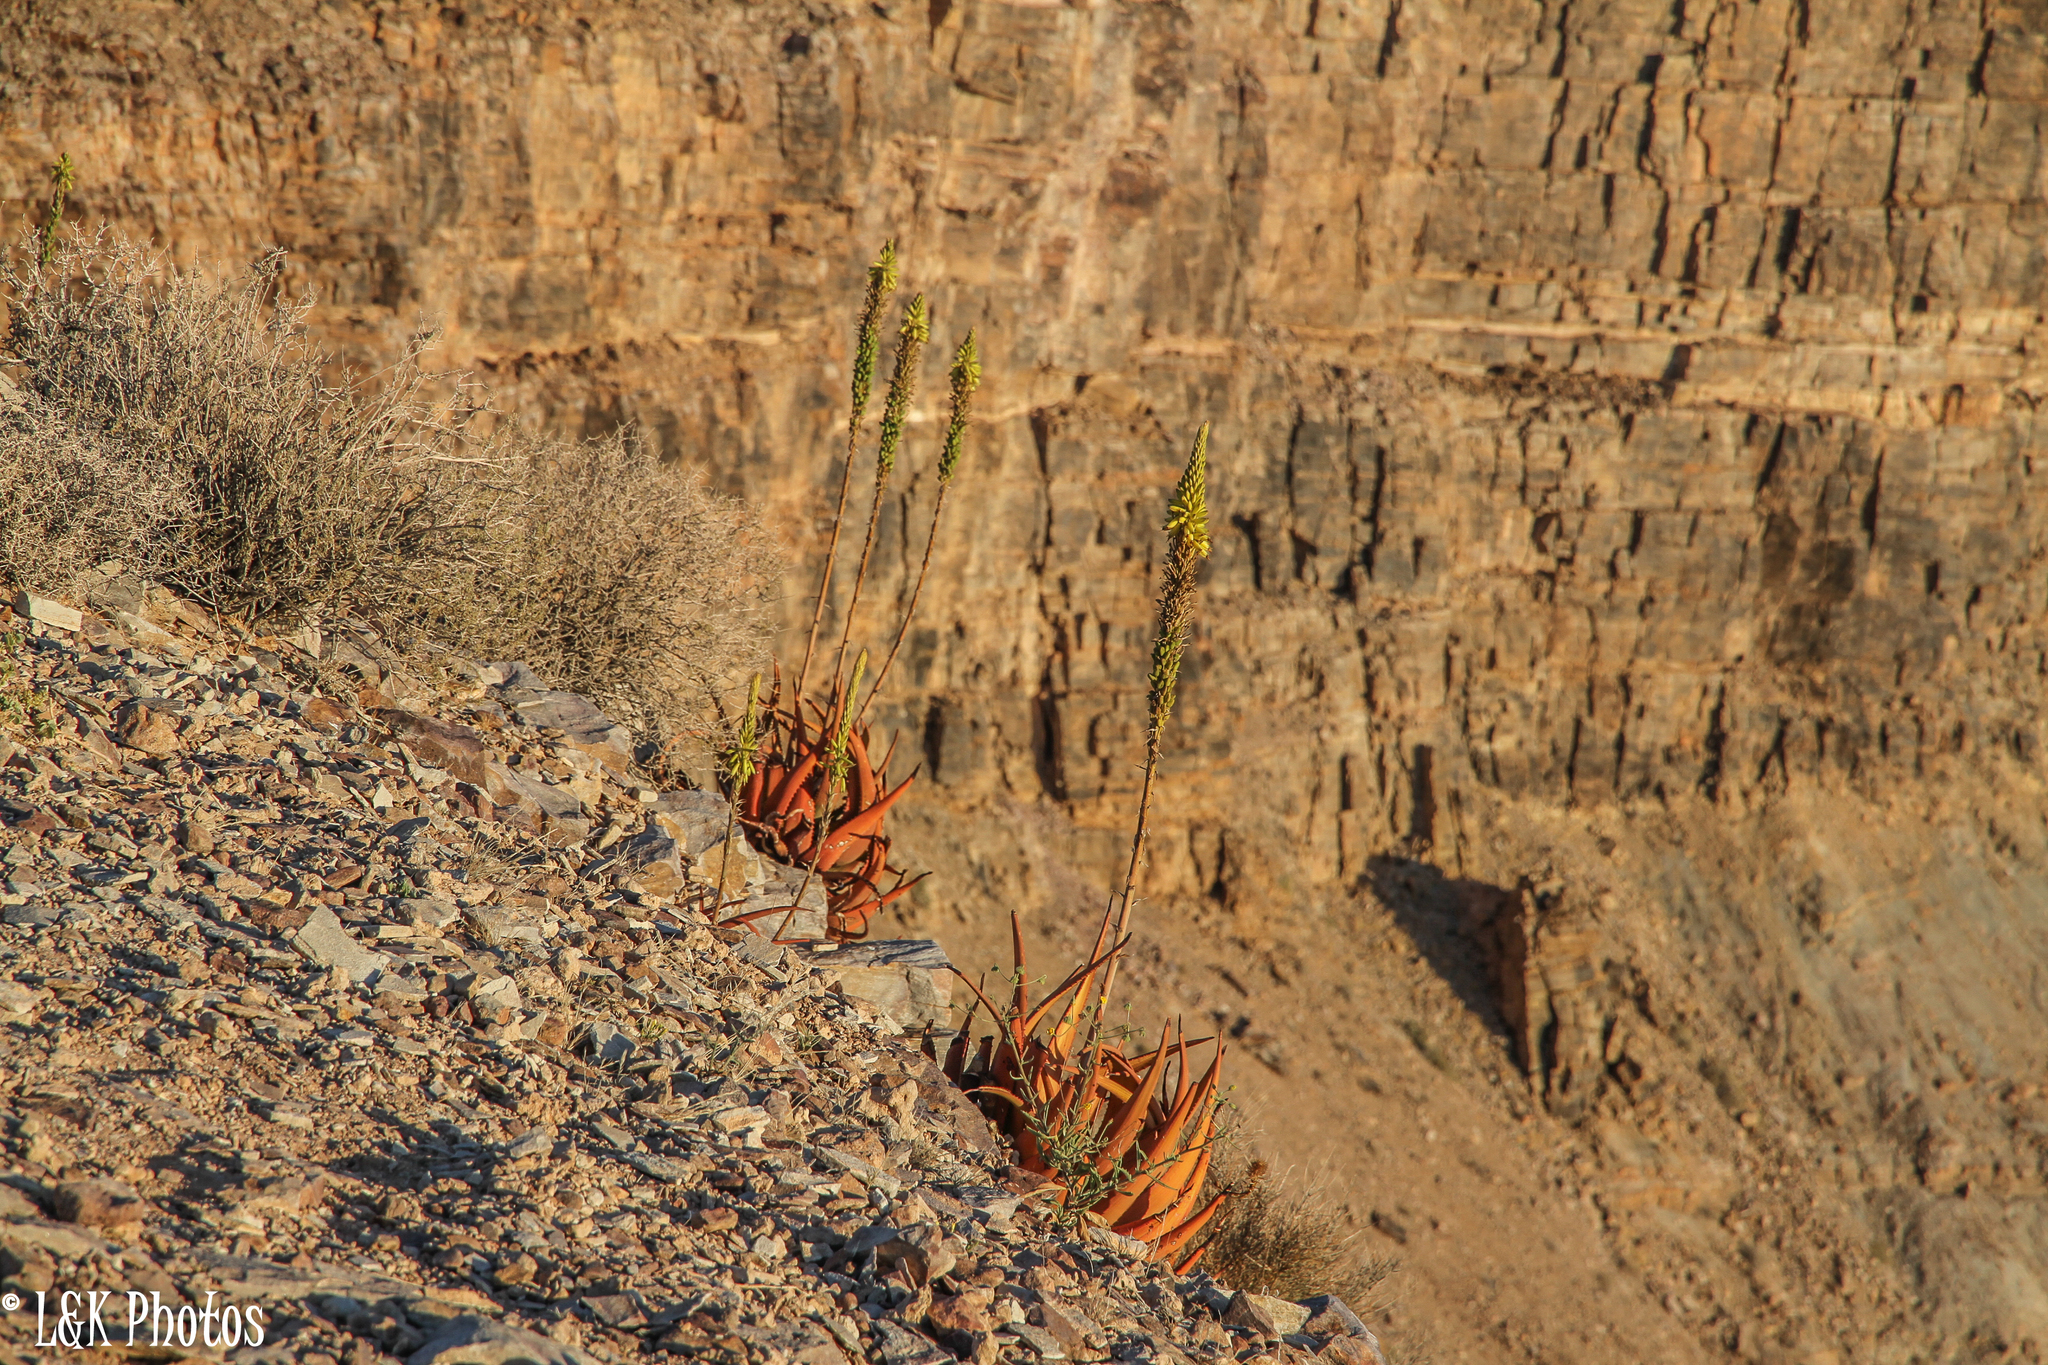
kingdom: Plantae
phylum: Tracheophyta
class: Liliopsida
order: Asparagales
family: Asphodelaceae
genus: Aloe
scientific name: Aloe gariepensis
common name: Orange river aloe
